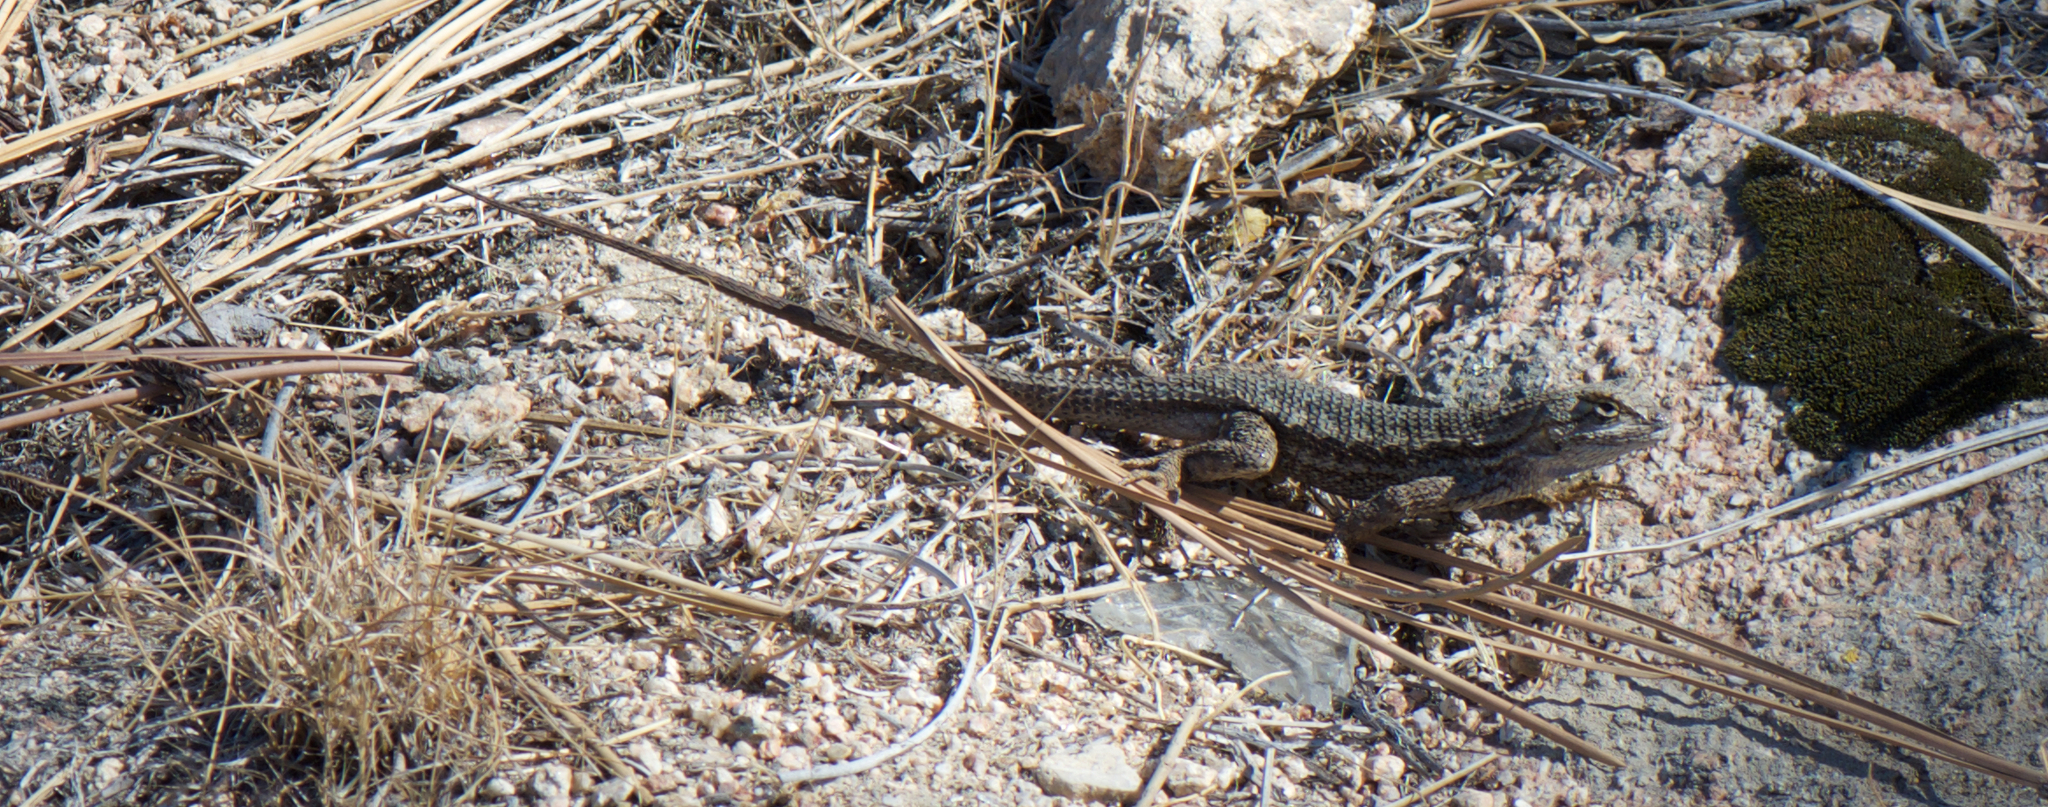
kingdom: Animalia
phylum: Chordata
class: Squamata
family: Phrynosomatidae
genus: Sceloporus
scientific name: Sceloporus occidentalis
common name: Western fence lizard
